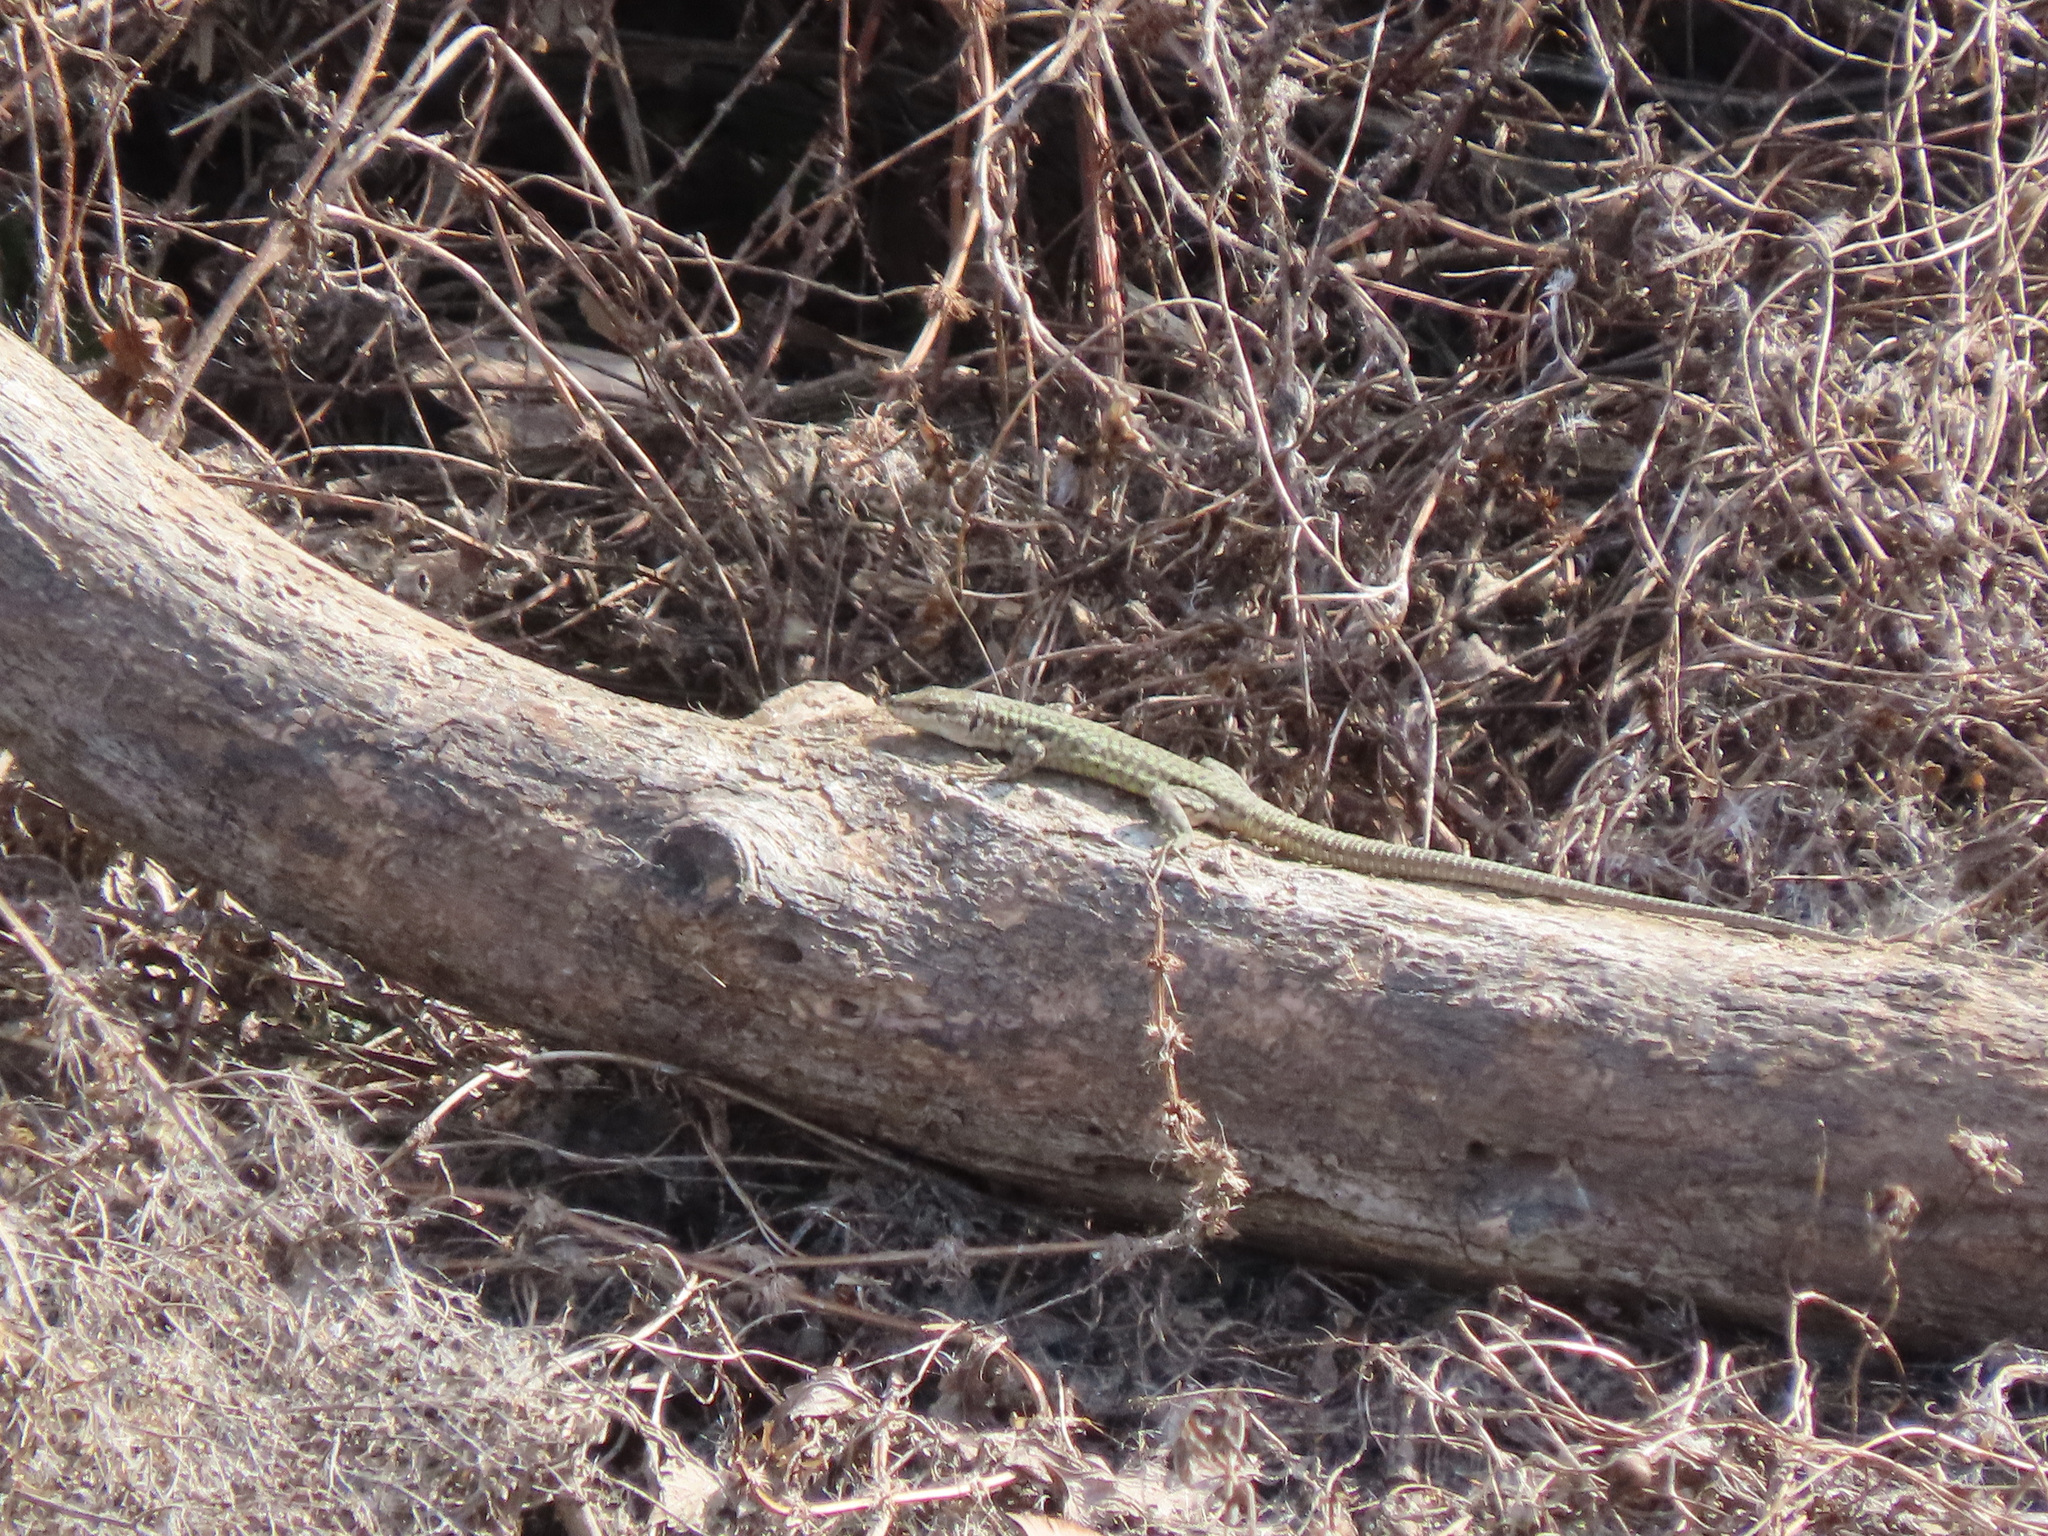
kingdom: Animalia
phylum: Chordata
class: Squamata
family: Lacertidae
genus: Podarcis
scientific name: Podarcis virescens
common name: Geniez’s wall lizard
